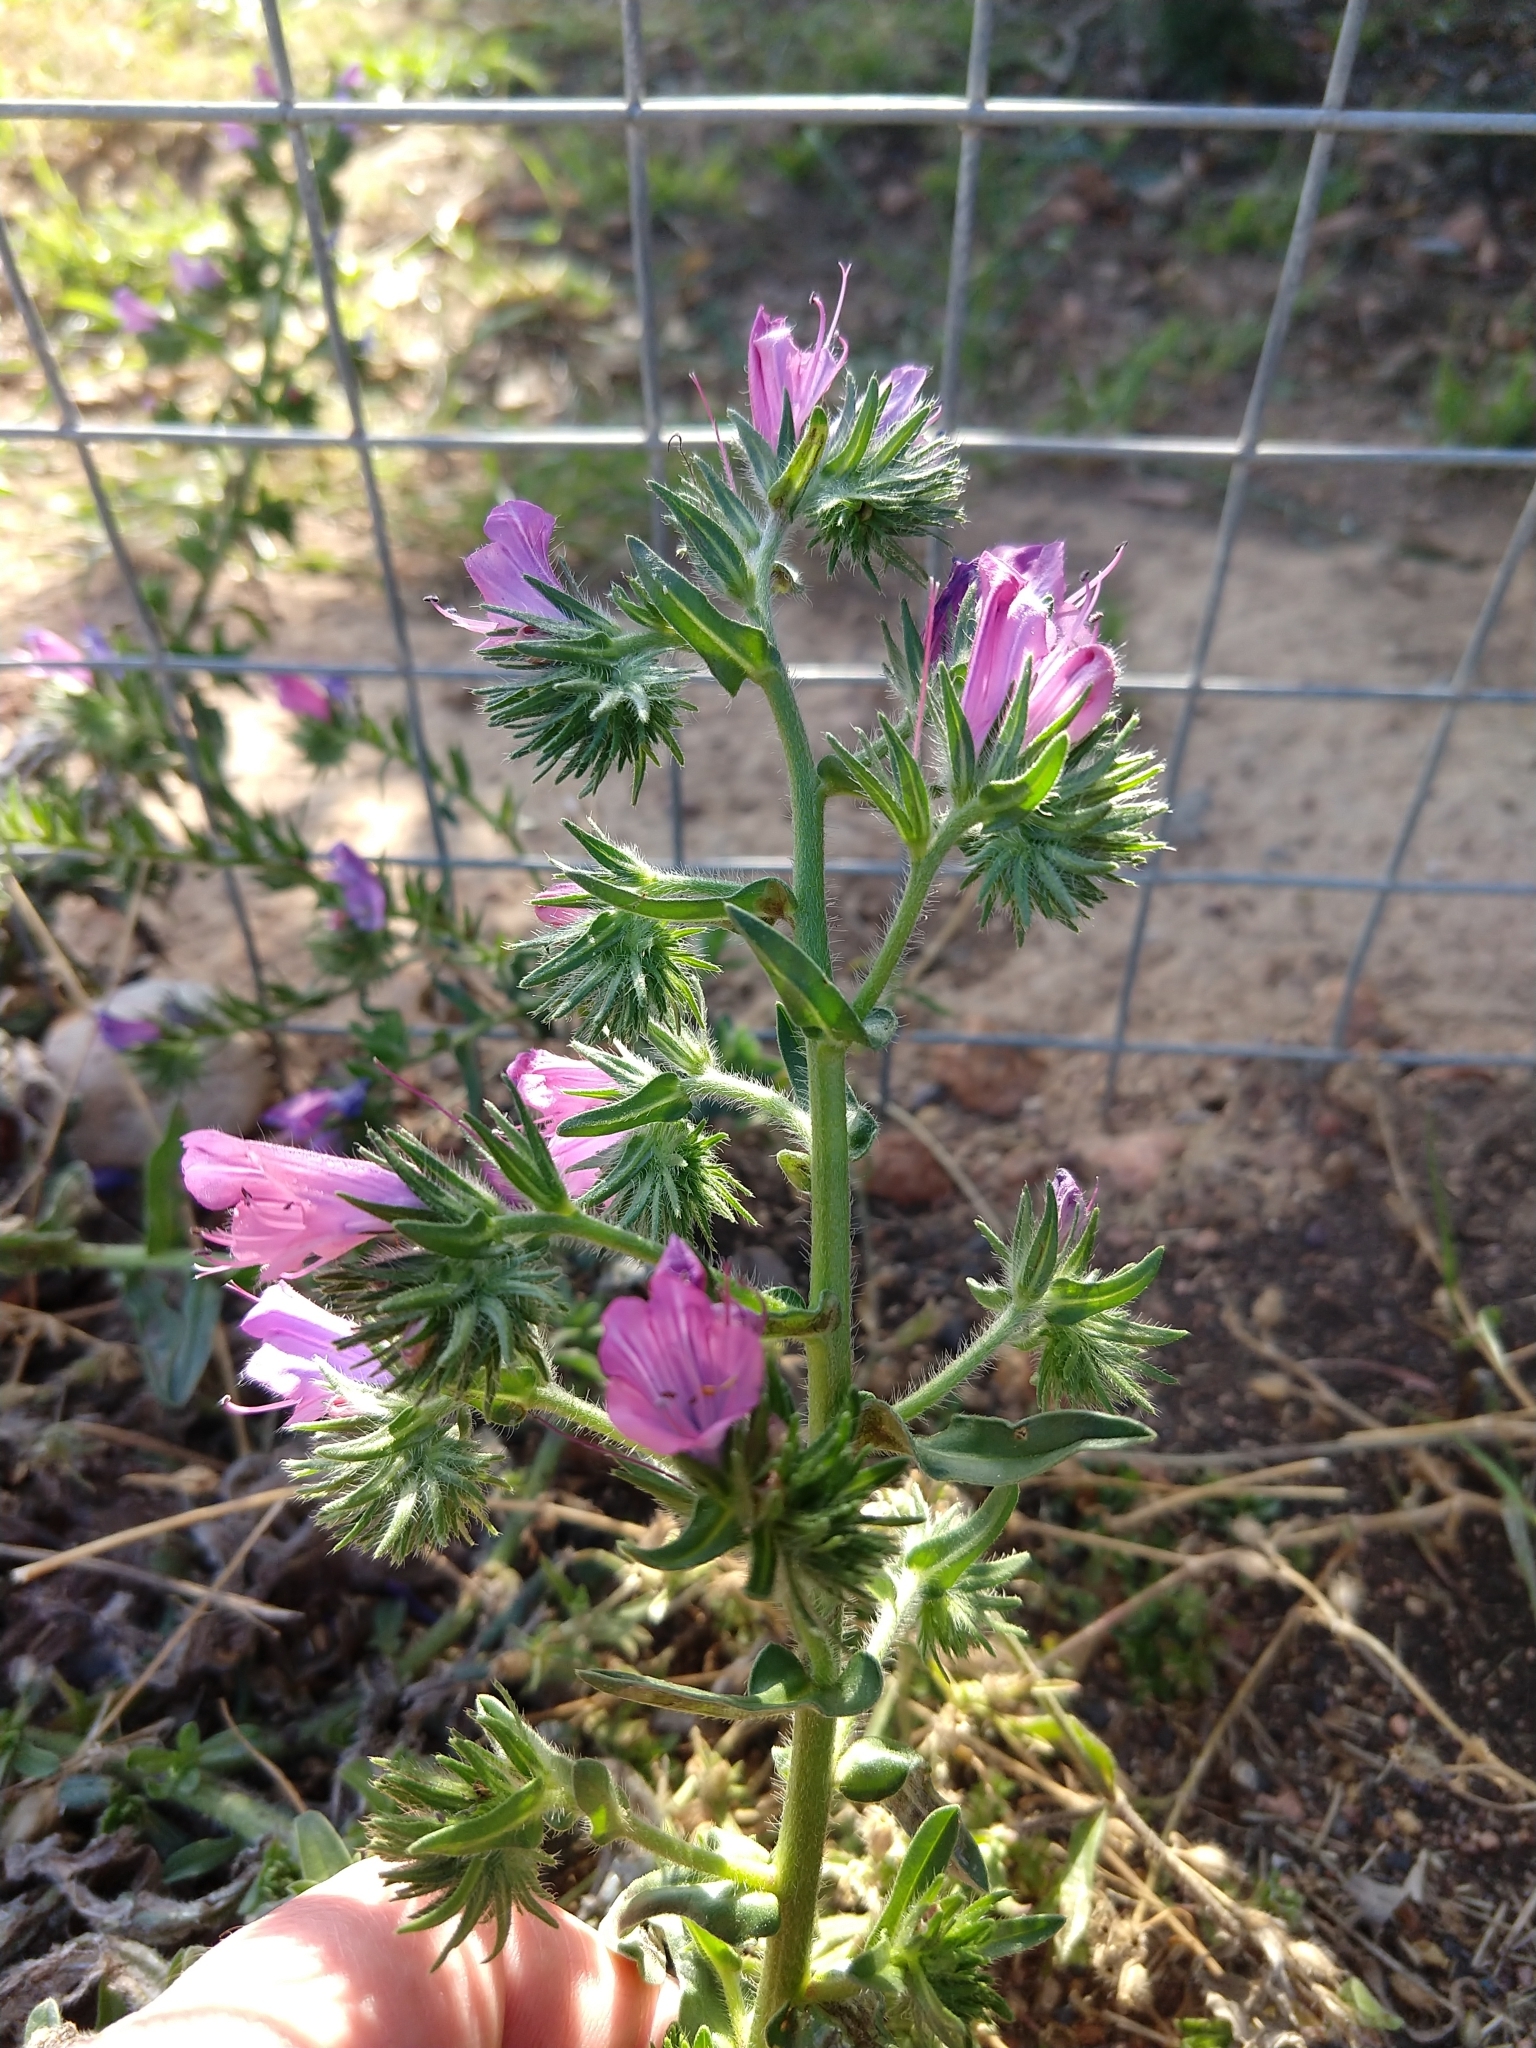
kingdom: Plantae
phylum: Tracheophyta
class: Magnoliopsida
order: Boraginales
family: Boraginaceae
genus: Echium
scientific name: Echium plantagineum
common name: Purple viper's-bugloss
